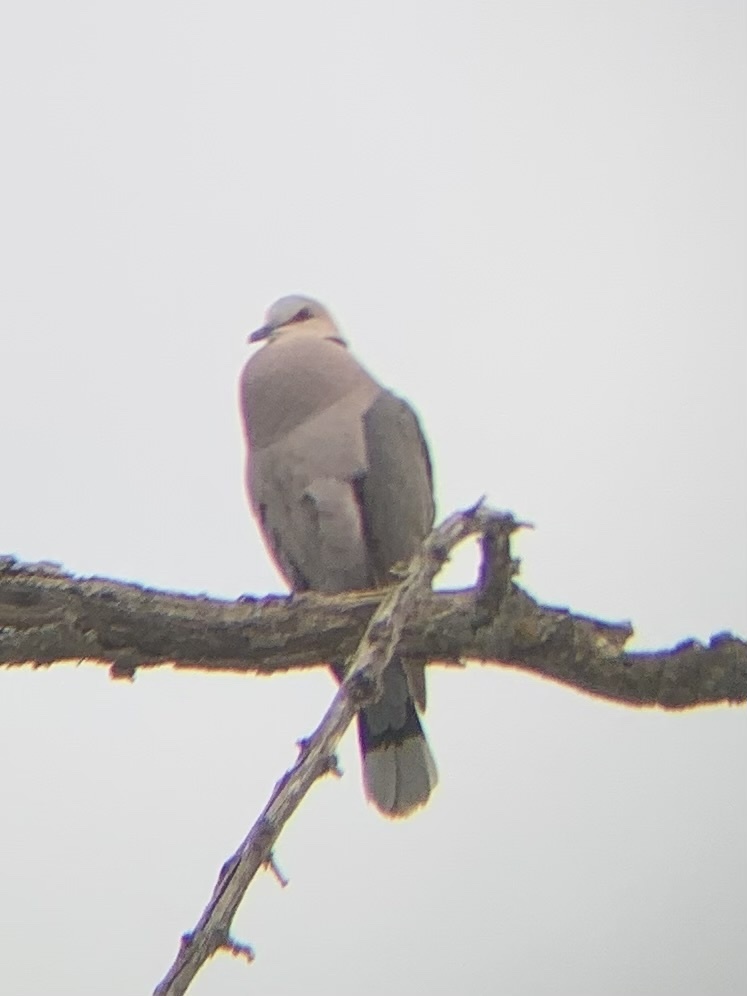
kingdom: Animalia
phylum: Chordata
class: Aves
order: Columbiformes
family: Columbidae
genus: Streptopelia
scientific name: Streptopelia semitorquata
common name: Red-eyed dove
